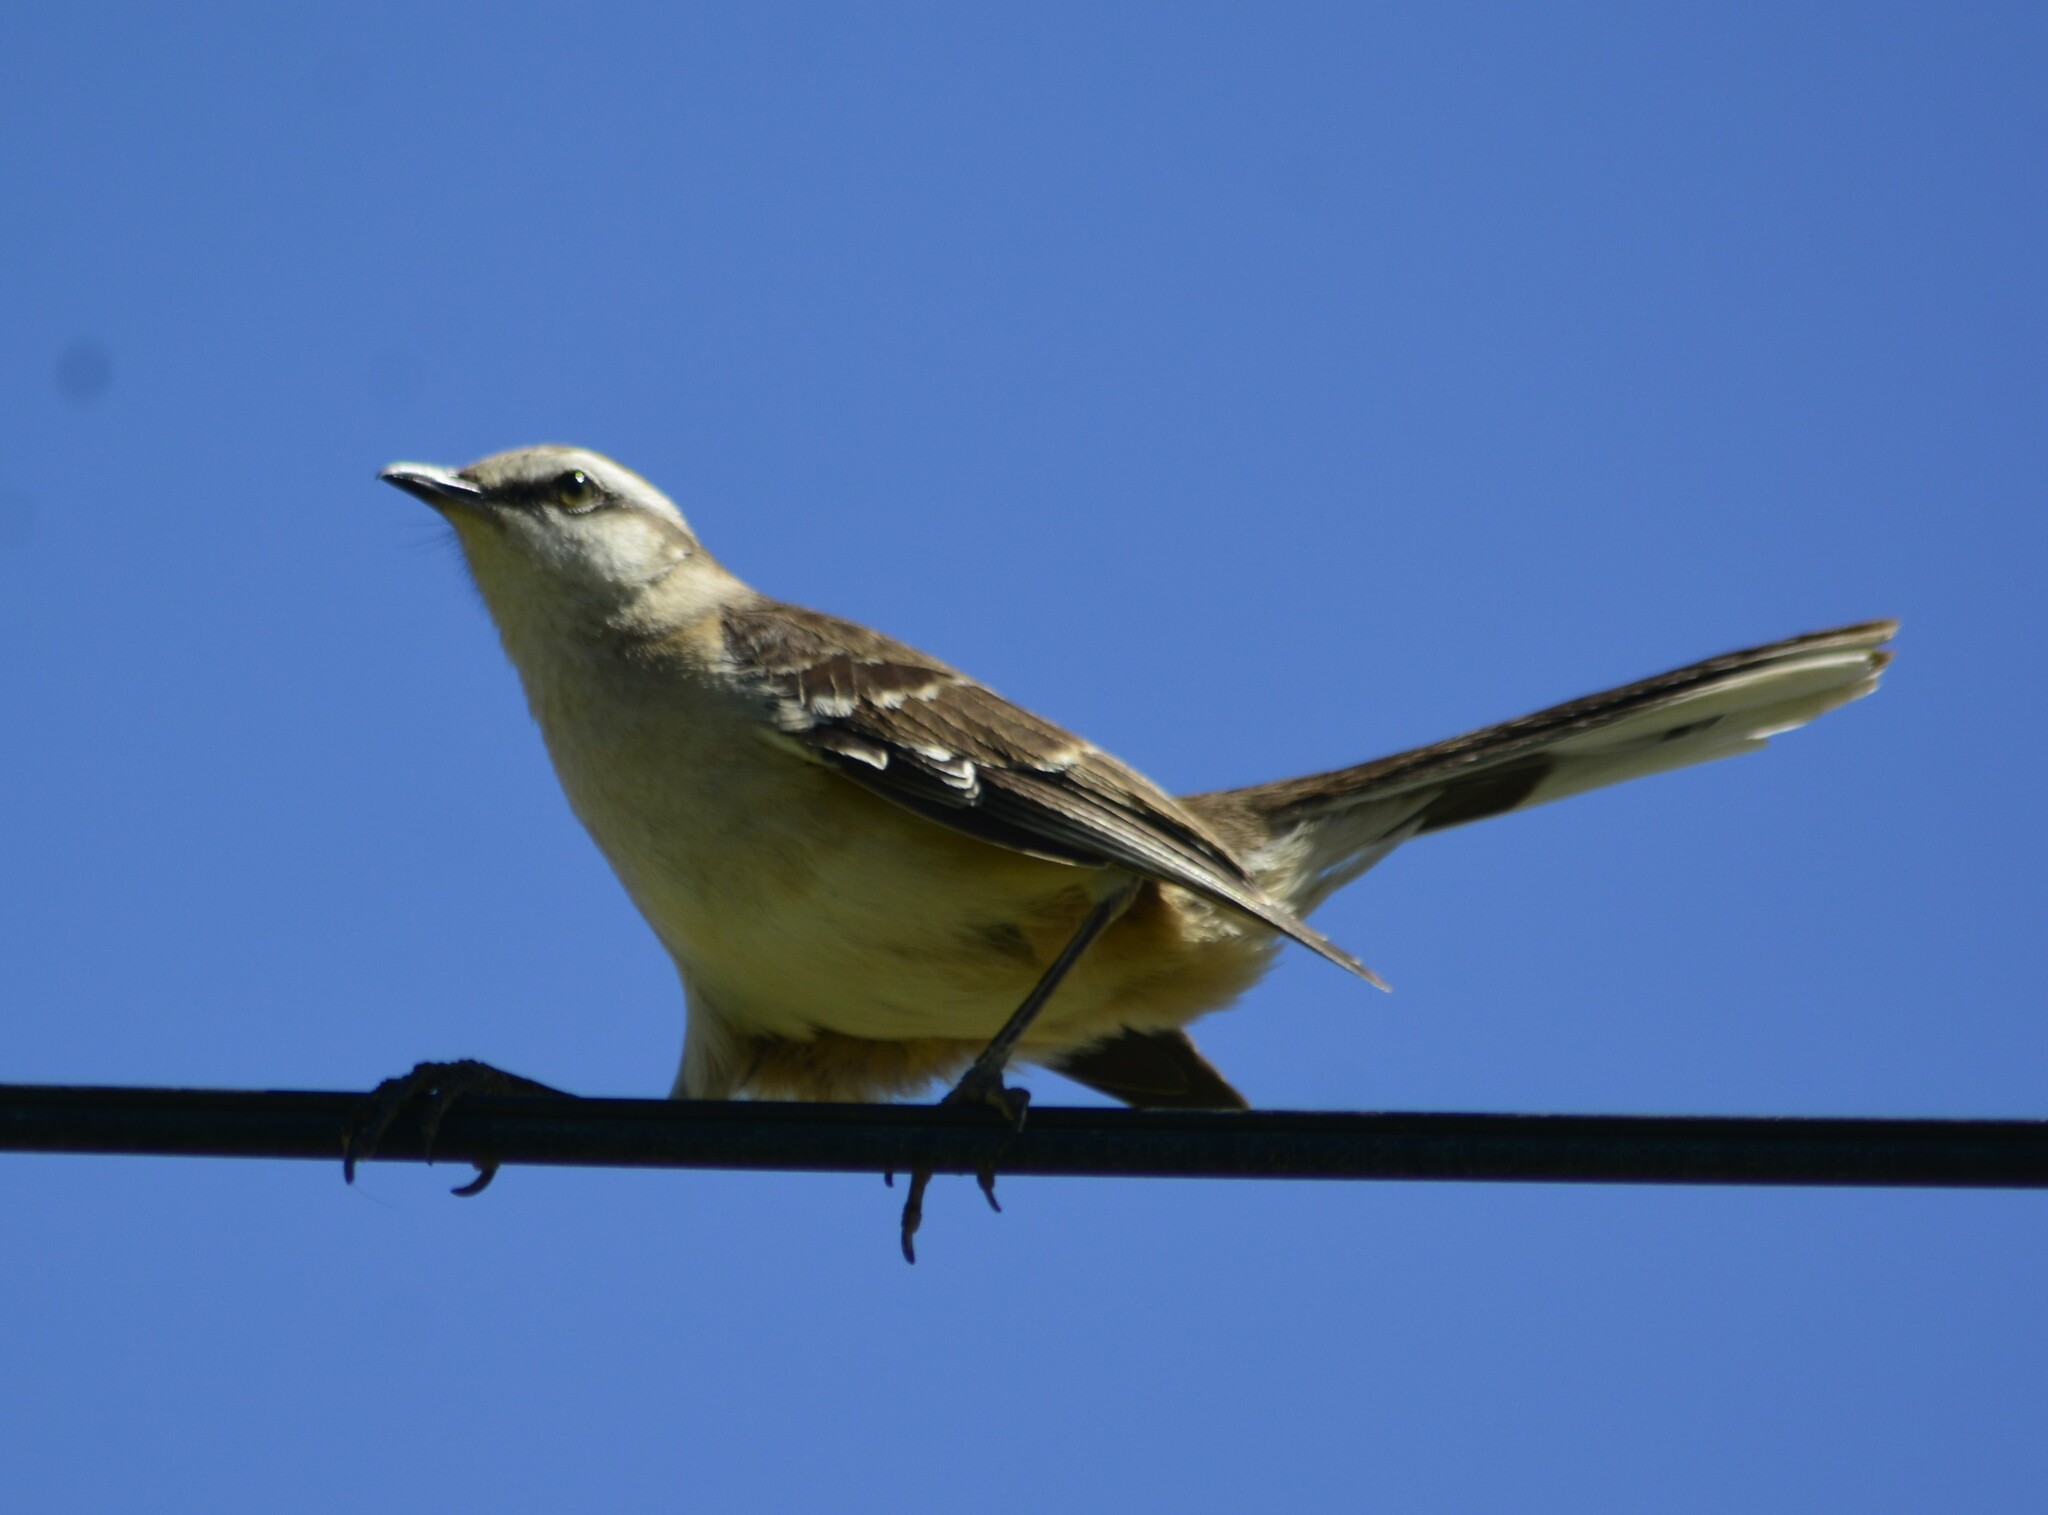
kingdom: Animalia
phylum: Chordata
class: Aves
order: Passeriformes
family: Mimidae
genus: Mimus
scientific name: Mimus saturninus
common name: Chalk-browed mockingbird
